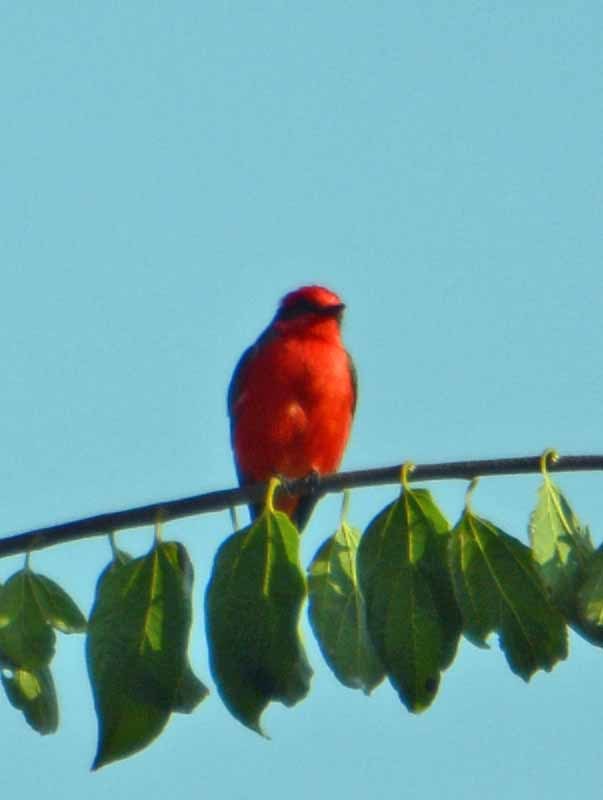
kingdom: Animalia
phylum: Chordata
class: Aves
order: Passeriformes
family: Tyrannidae
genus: Pyrocephalus
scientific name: Pyrocephalus rubinus
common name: Vermilion flycatcher
